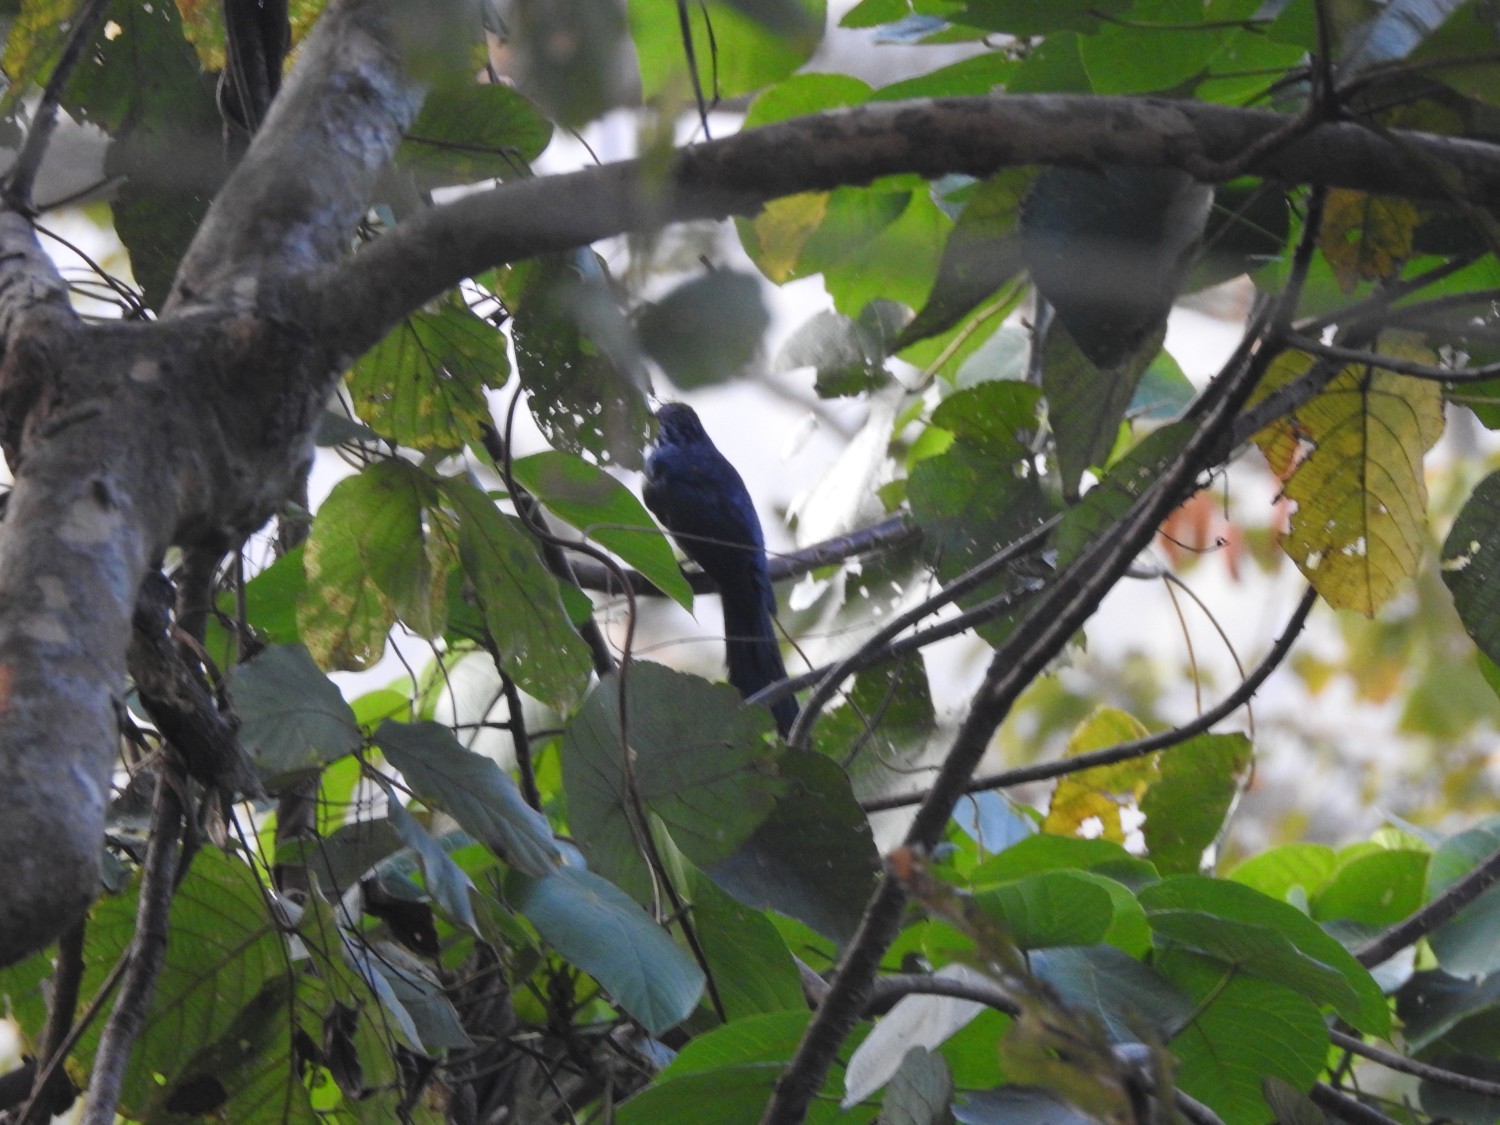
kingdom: Animalia
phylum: Chordata
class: Aves
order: Passeriformes
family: Irenidae
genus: Irena
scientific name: Irena puella
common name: Asian fairy-bluebird
